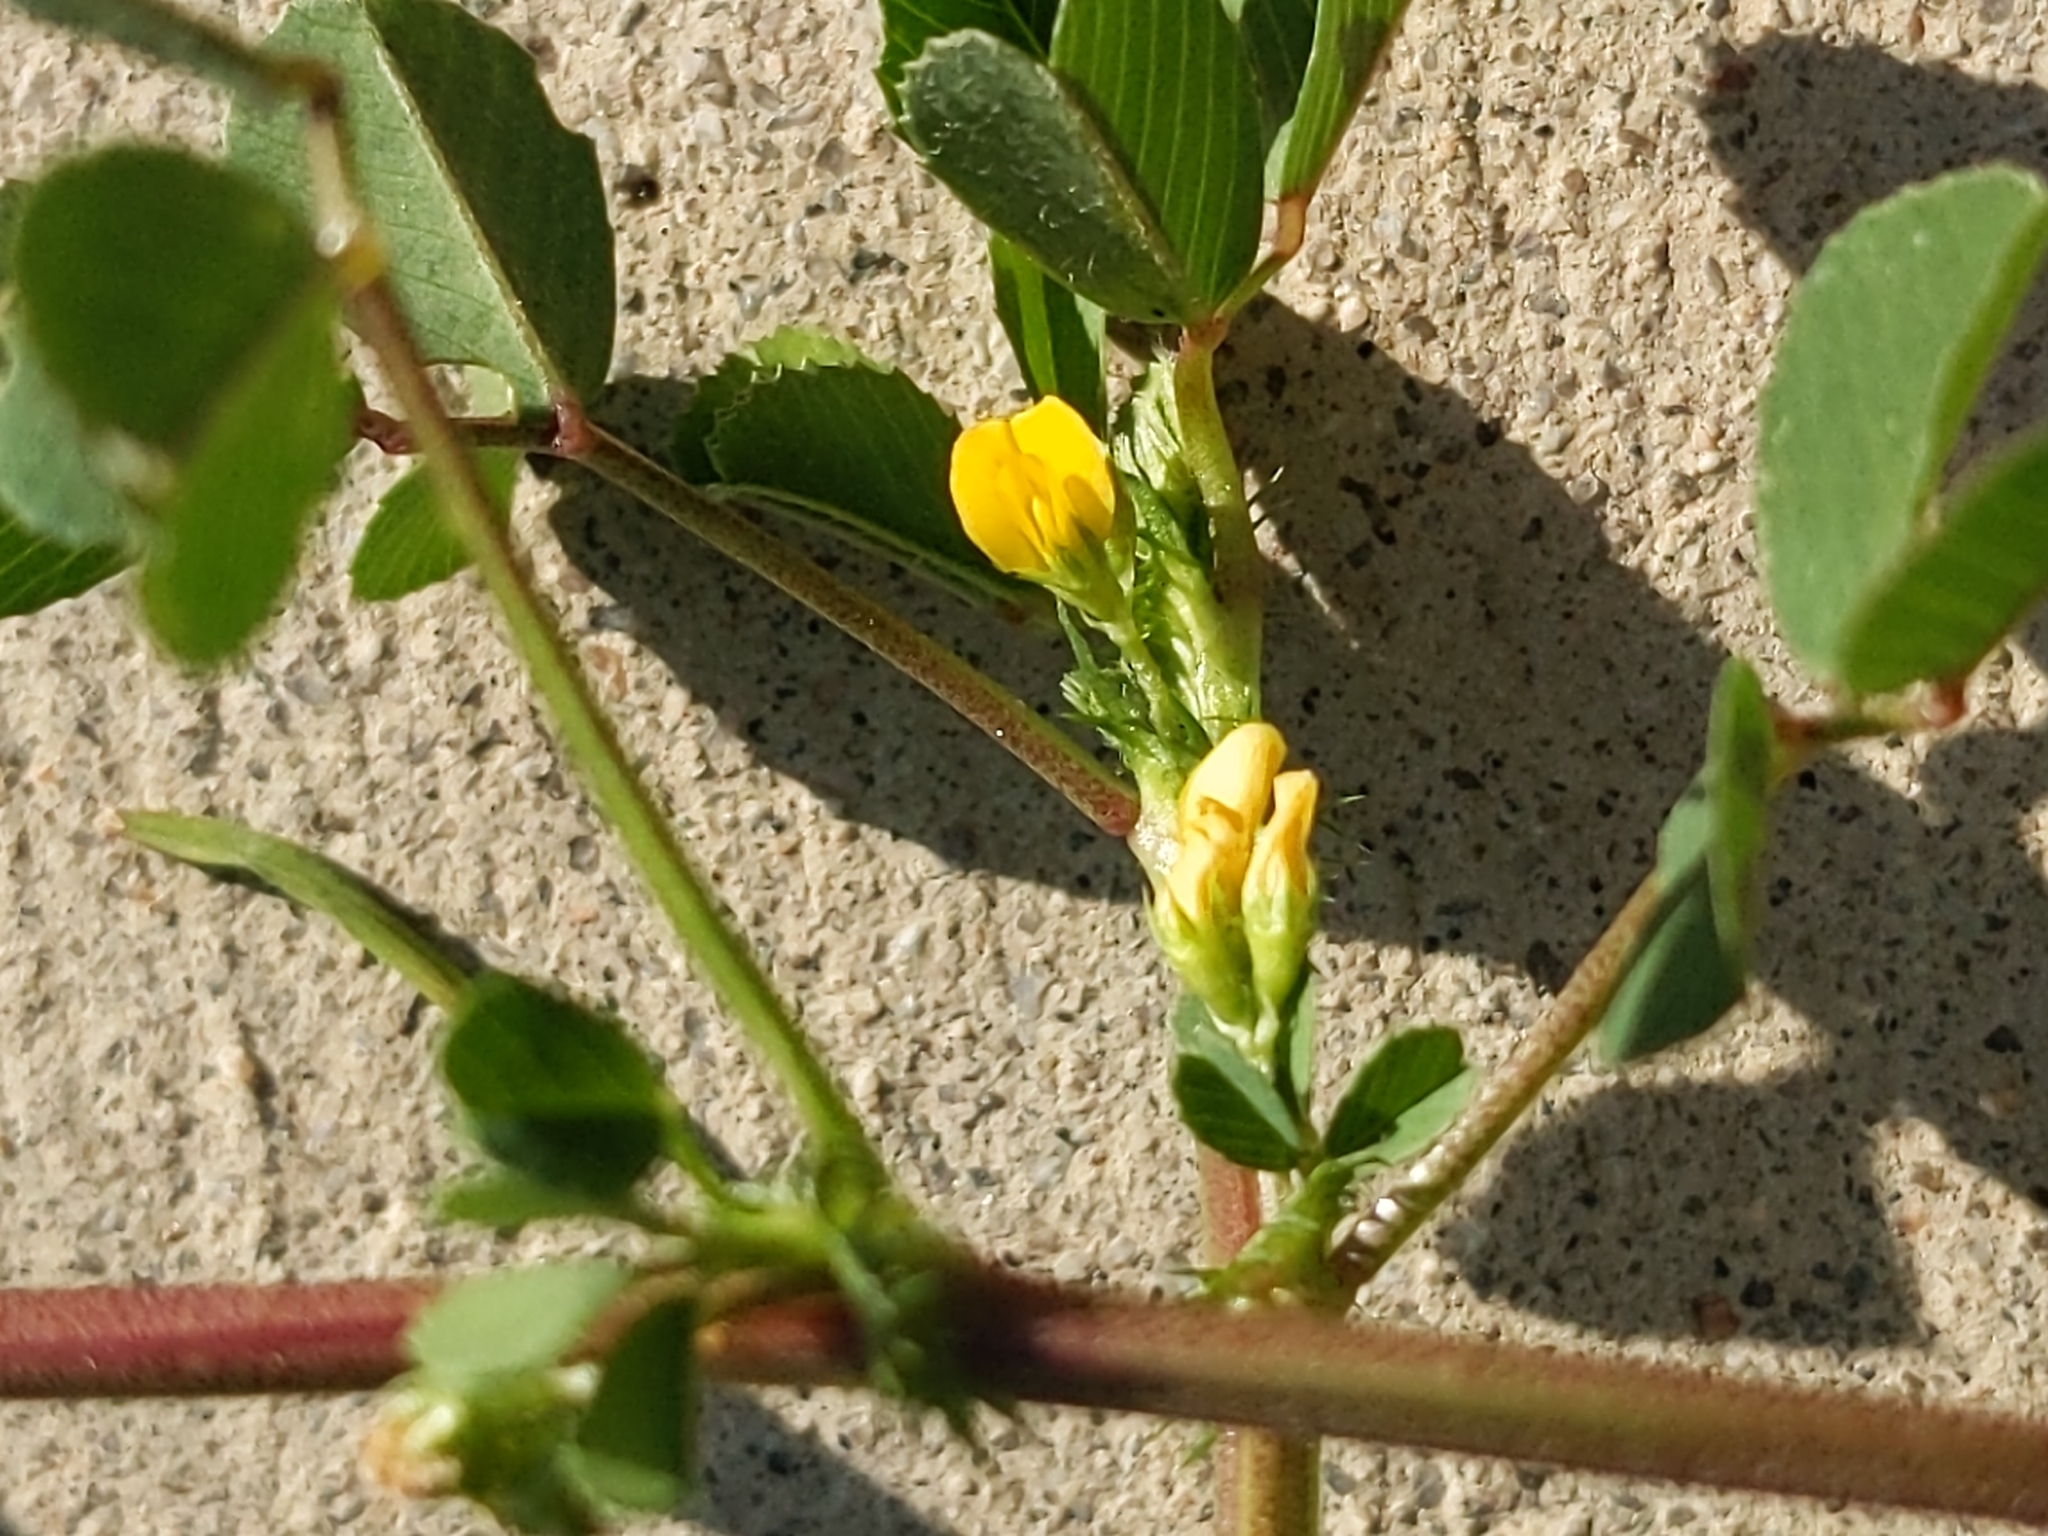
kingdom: Plantae
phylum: Tracheophyta
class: Magnoliopsida
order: Fabales
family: Fabaceae
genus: Medicago
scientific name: Medicago polymorpha
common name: Burclover
